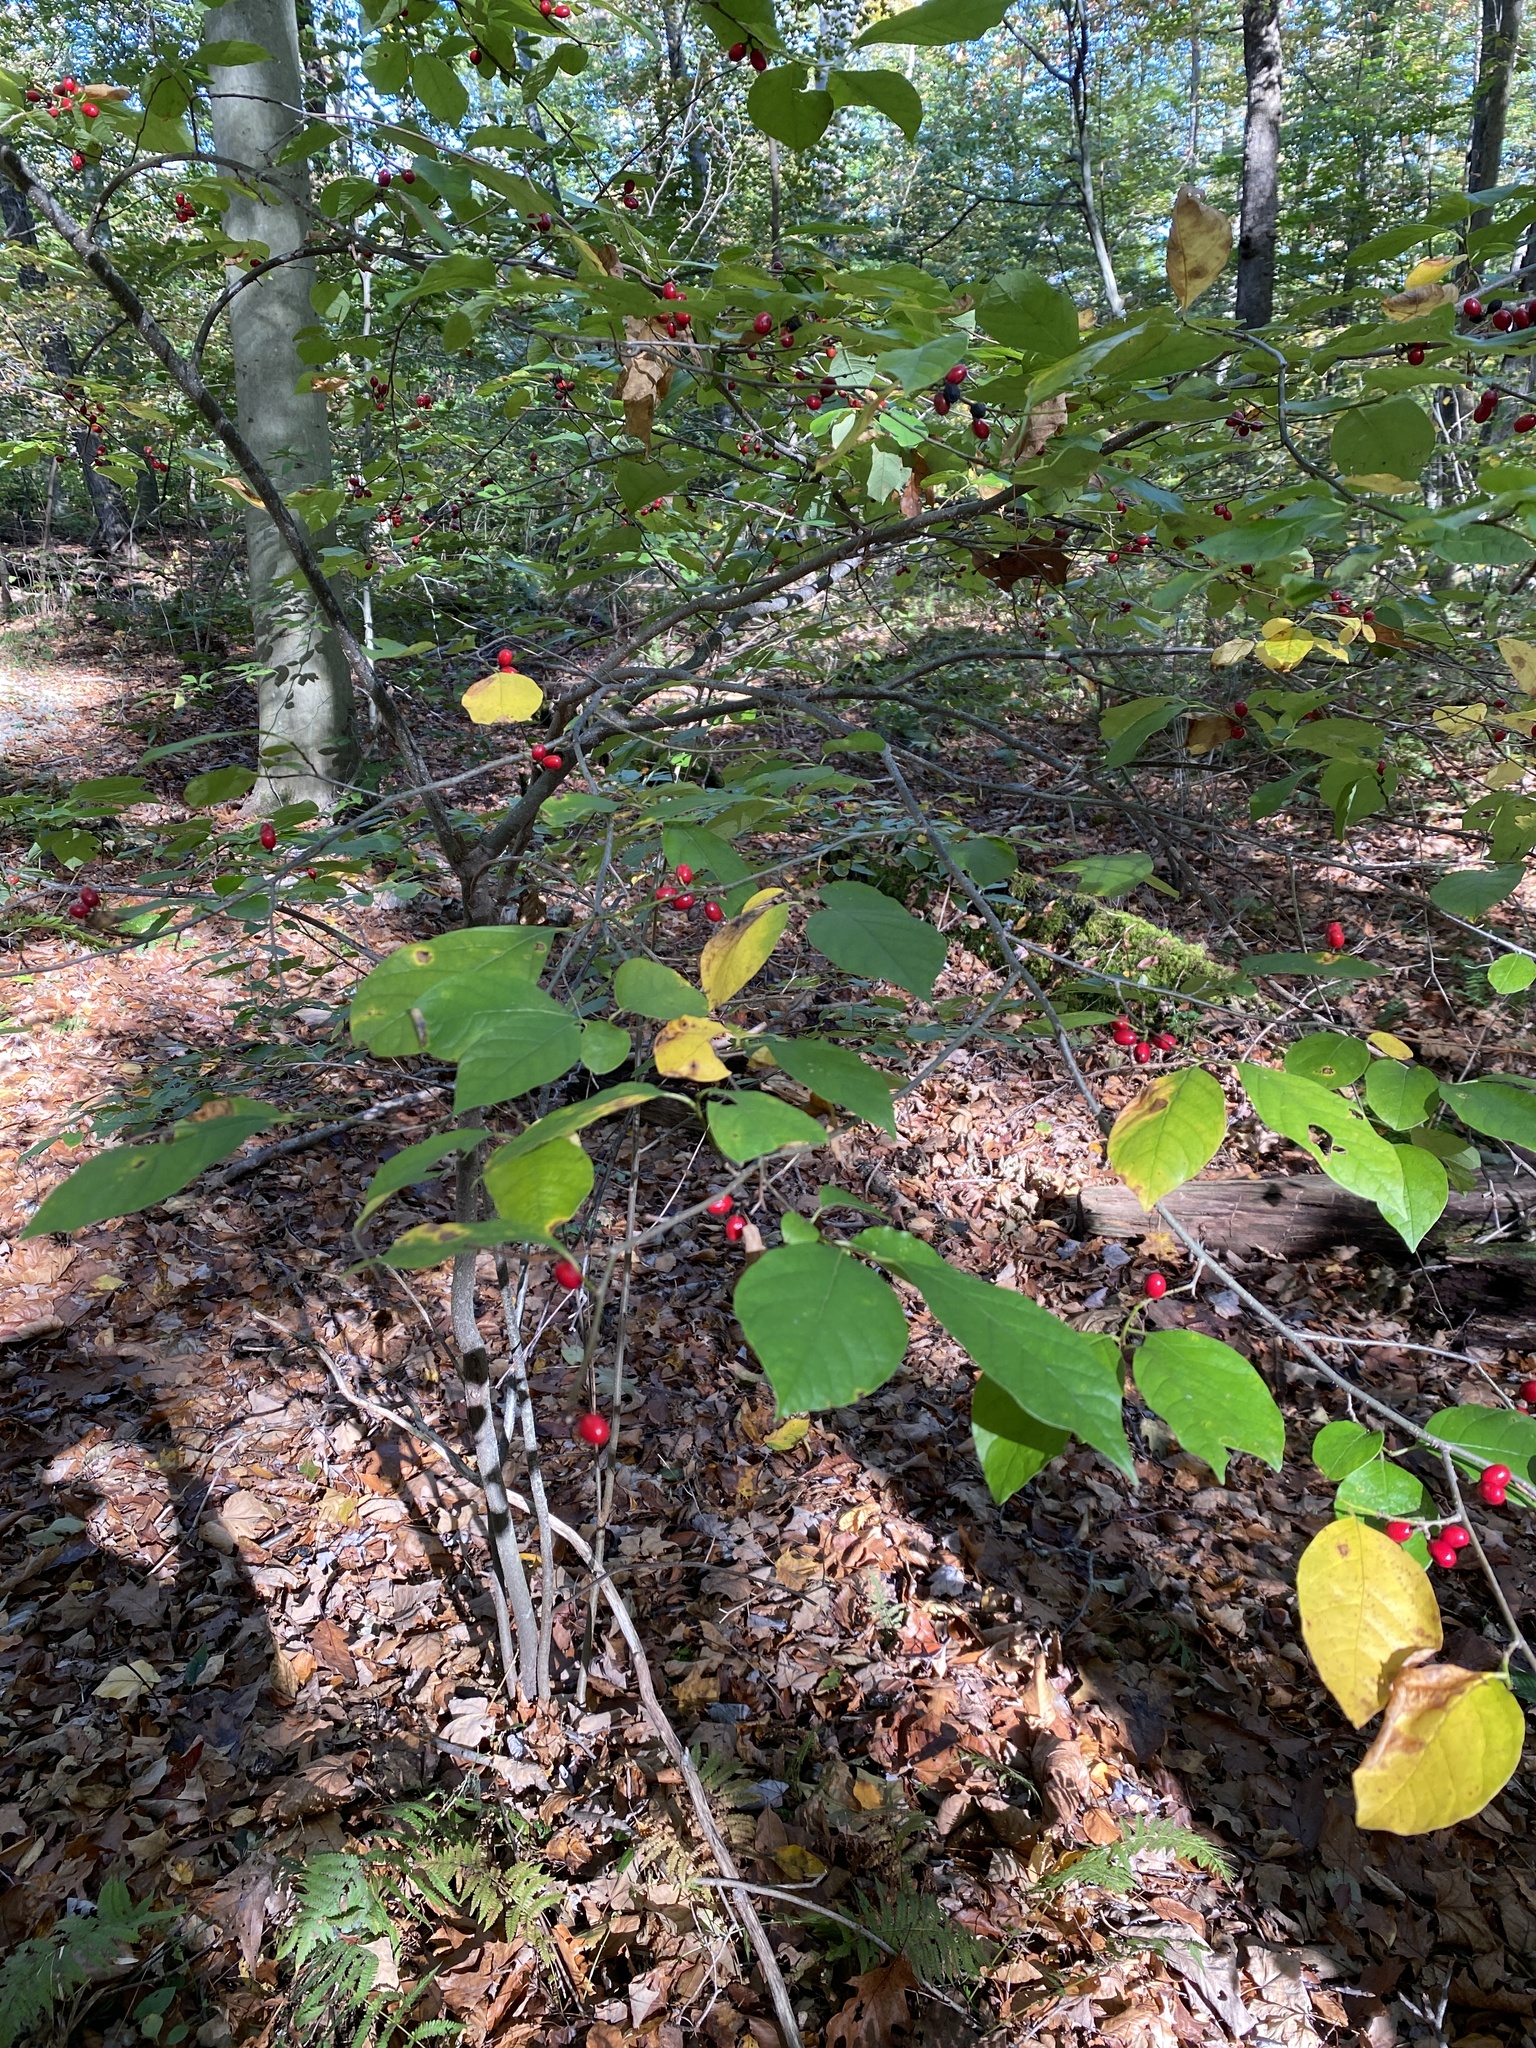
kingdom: Plantae
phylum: Tracheophyta
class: Magnoliopsida
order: Laurales
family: Lauraceae
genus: Lindera
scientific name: Lindera benzoin
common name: Spicebush
